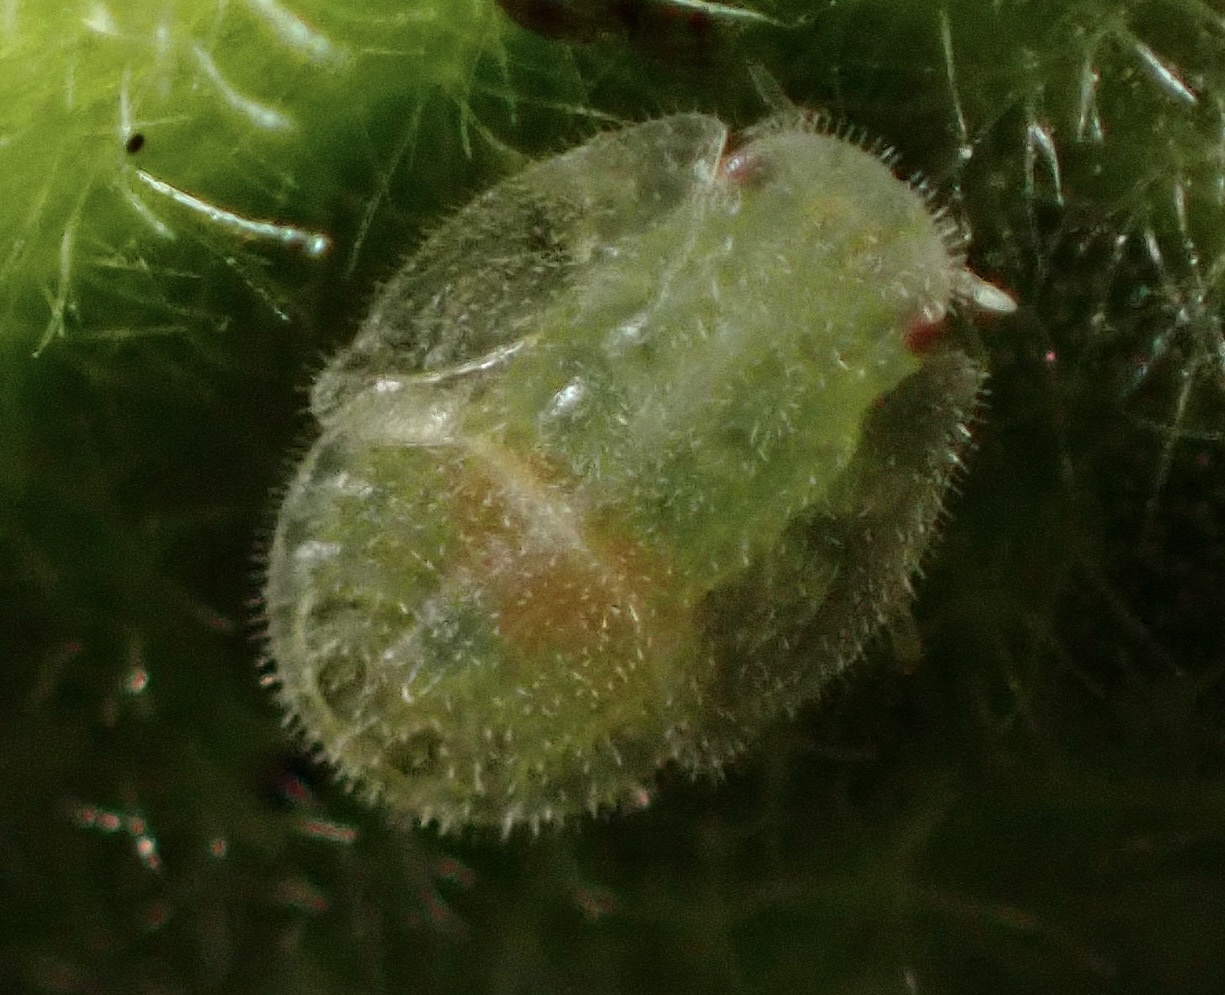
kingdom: Animalia
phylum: Arthropoda
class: Insecta
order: Hemiptera
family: Triozidae
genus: Bactericera
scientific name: Bactericera lavaterae
